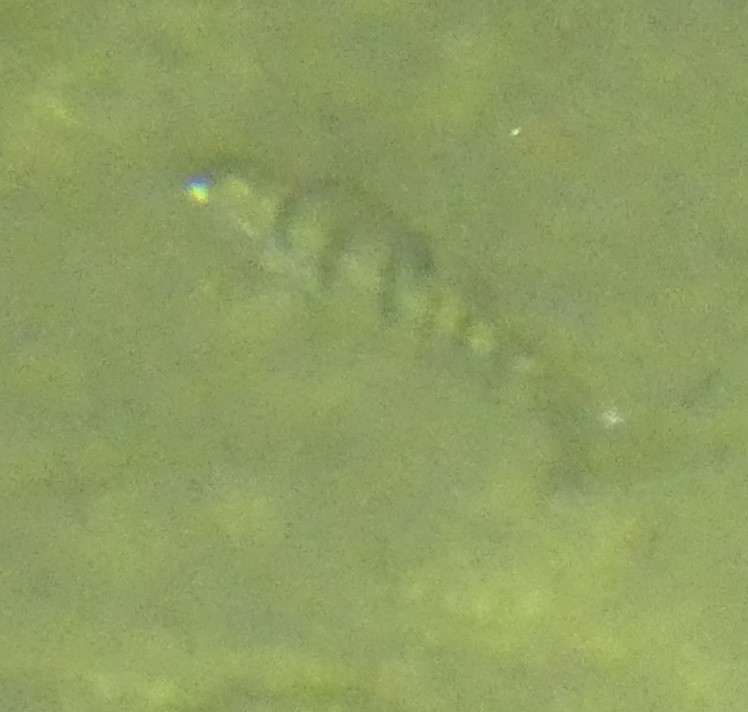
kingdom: Animalia
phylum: Chordata
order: Perciformes
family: Percidae
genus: Perca
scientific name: Perca fluviatilis
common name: Perch
